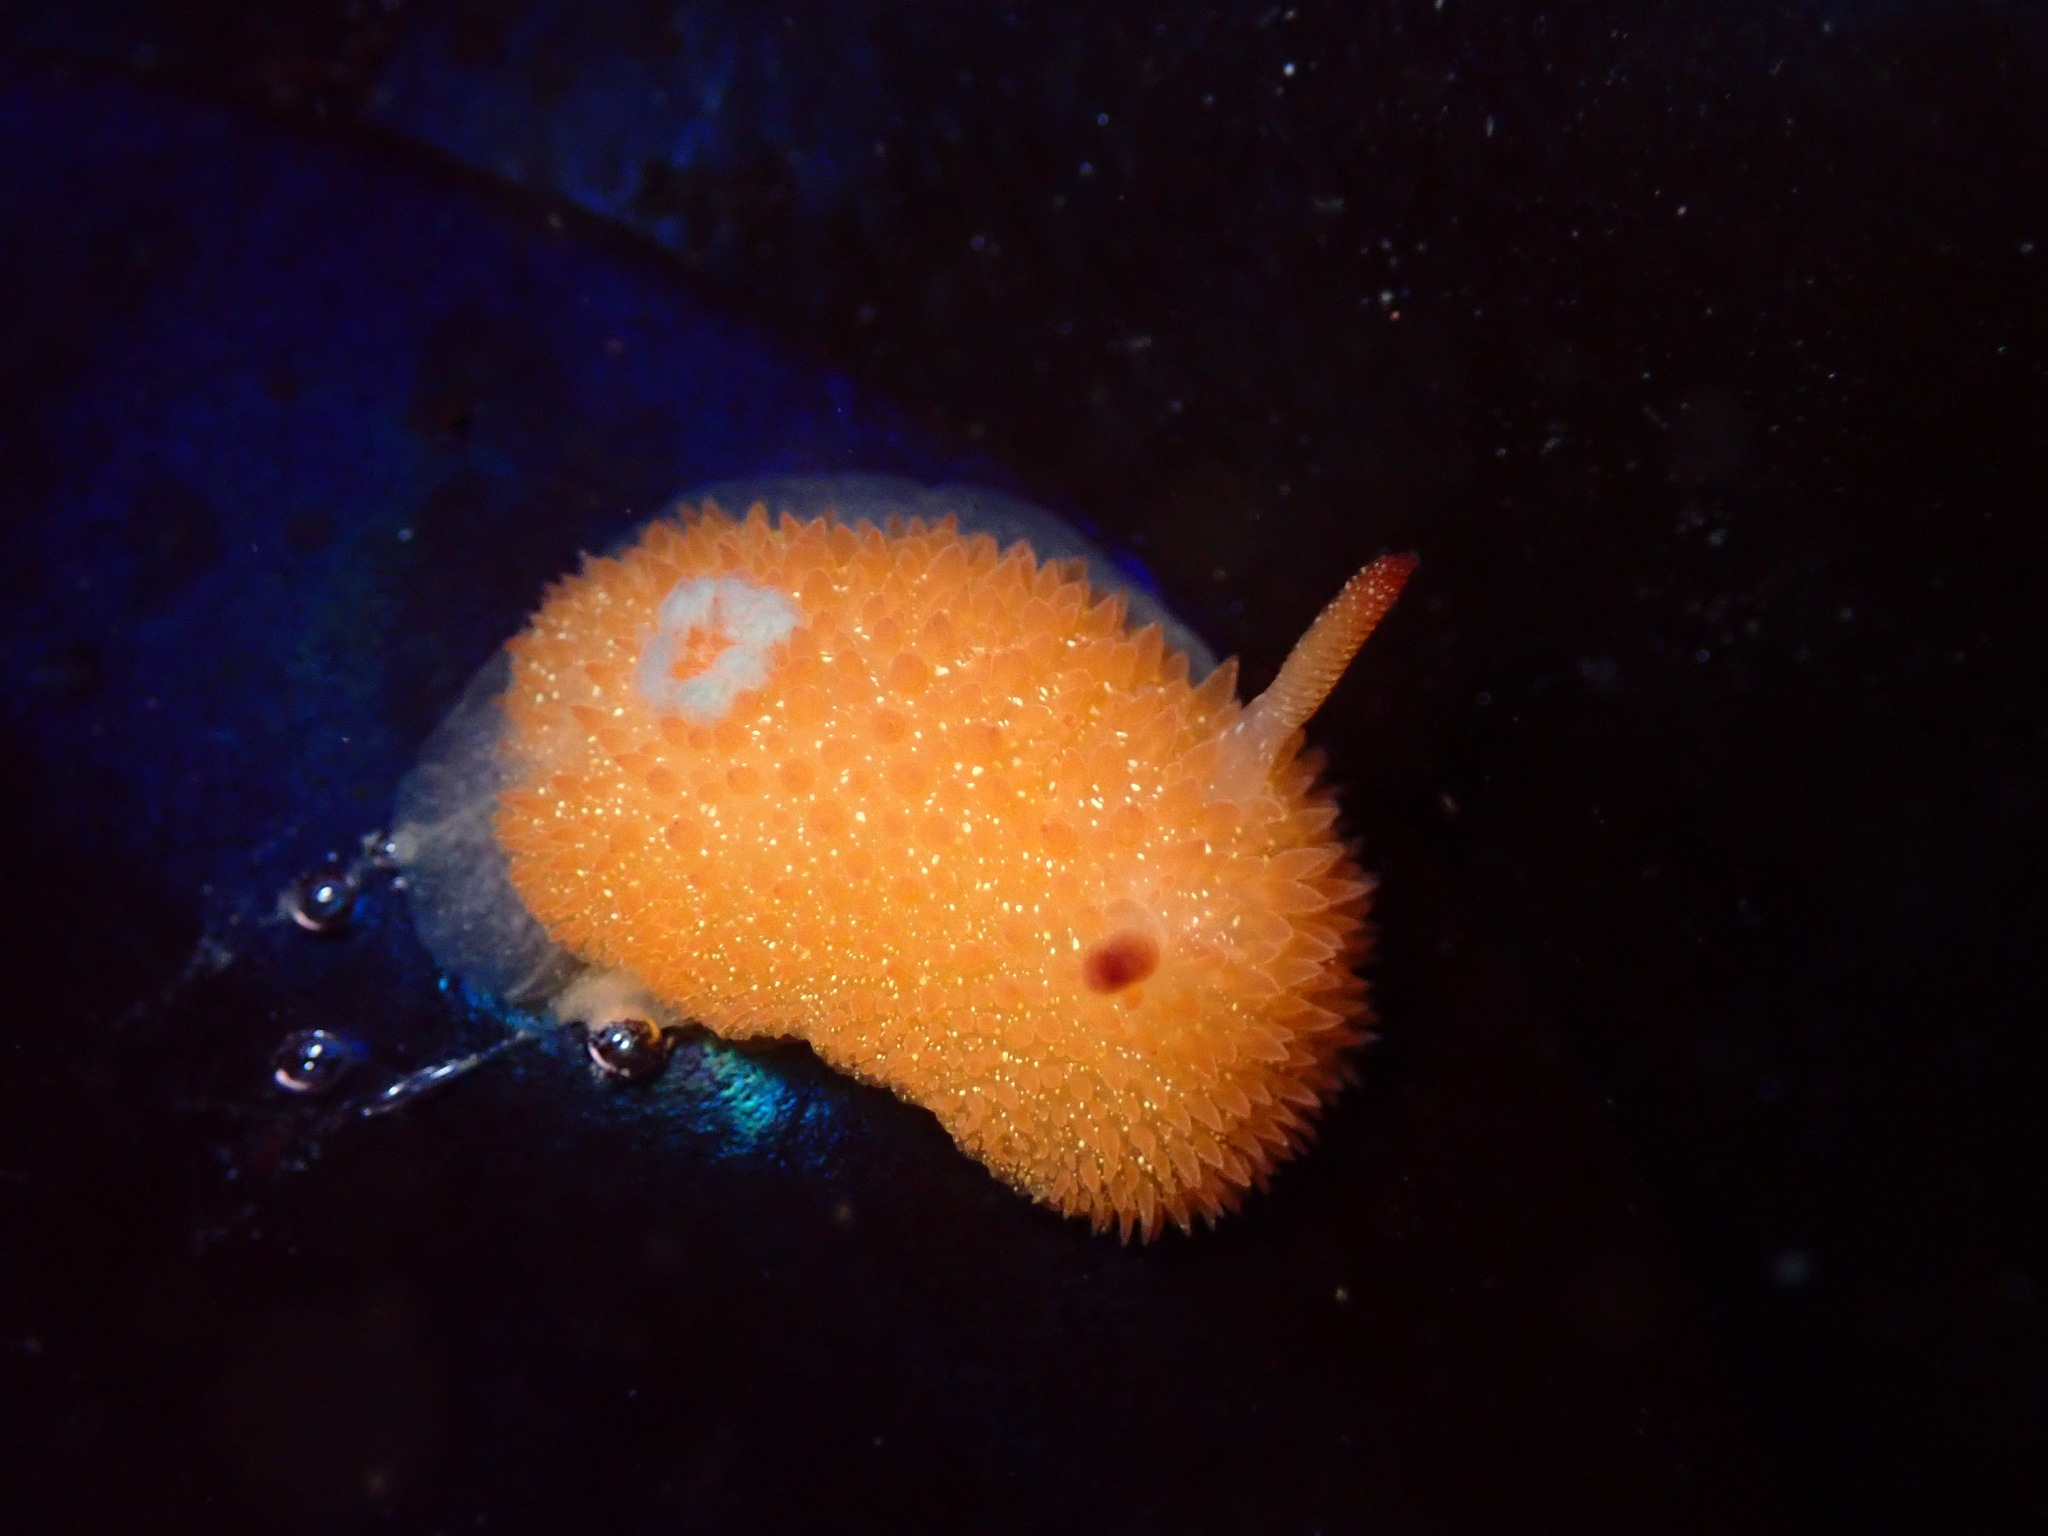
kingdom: Animalia
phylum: Mollusca
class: Gastropoda
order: Nudibranchia
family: Onchidorididae
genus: Acanthodoris
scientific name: Acanthodoris lutea
